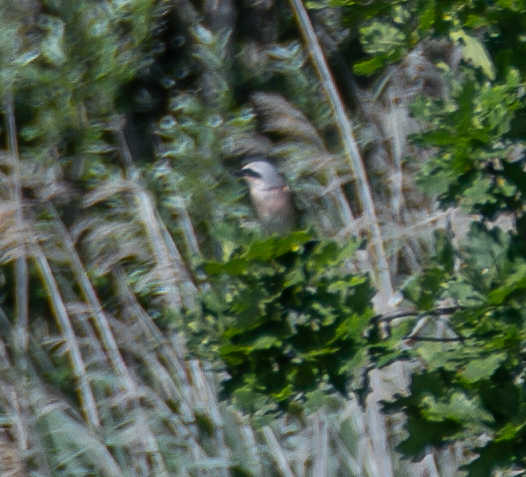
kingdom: Animalia
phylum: Chordata
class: Aves
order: Passeriformes
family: Laniidae
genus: Lanius
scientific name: Lanius collurio
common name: Red-backed shrike
